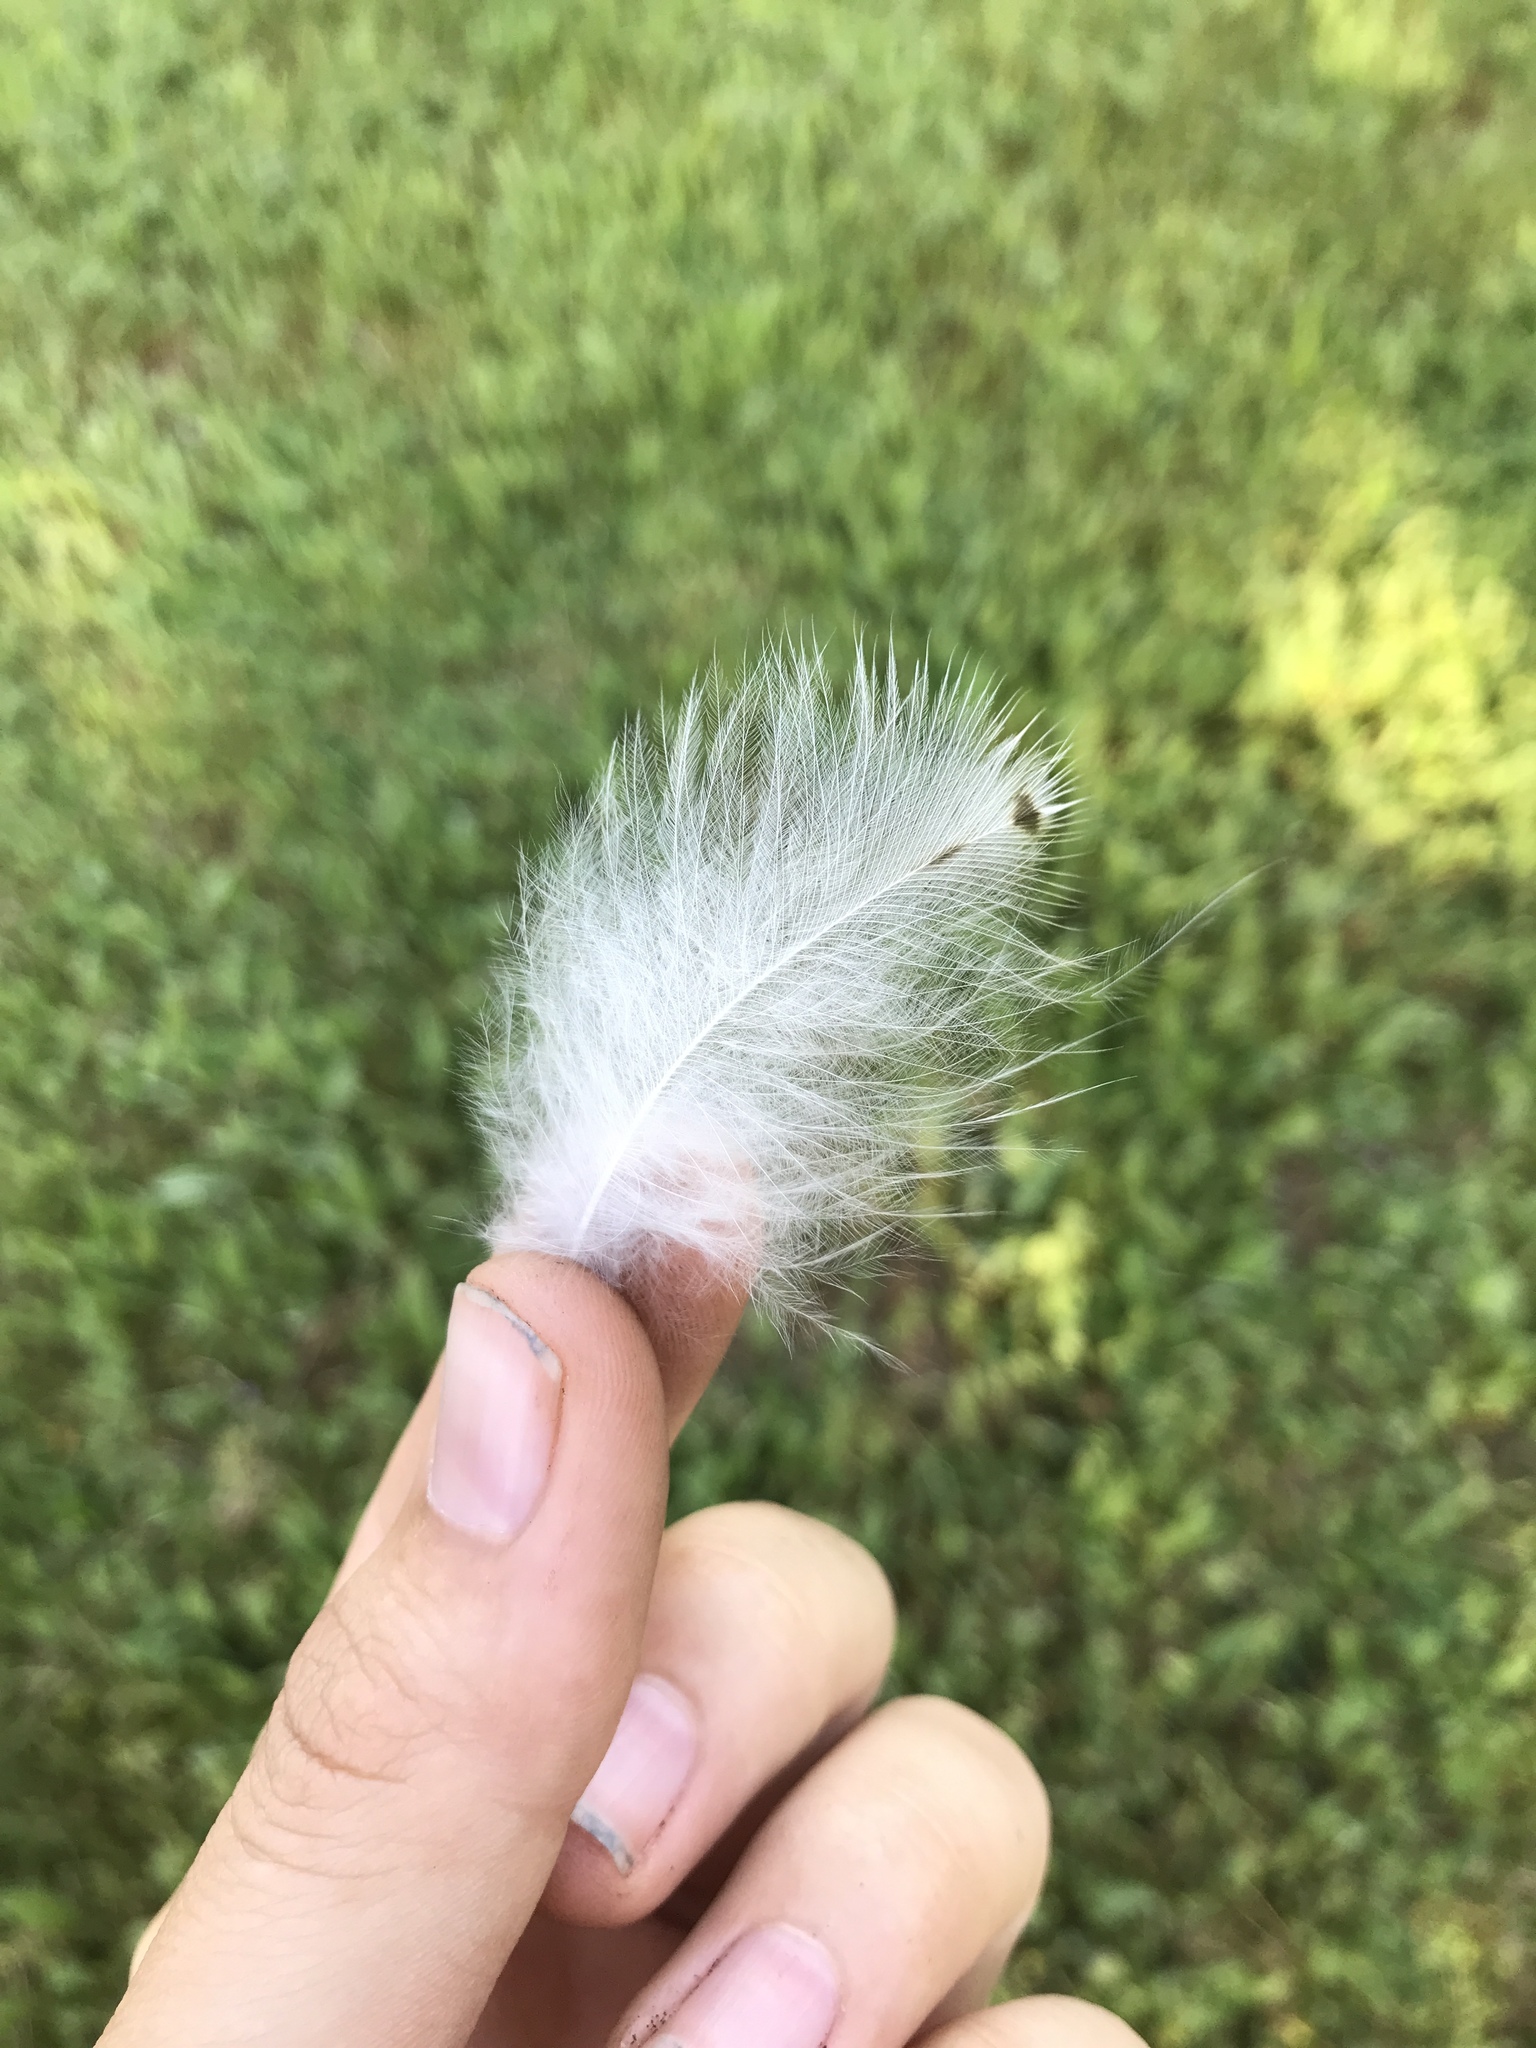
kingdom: Animalia
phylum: Chordata
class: Aves
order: Strigiformes
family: Tytonidae
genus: Tyto
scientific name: Tyto alba
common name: Barn owl
